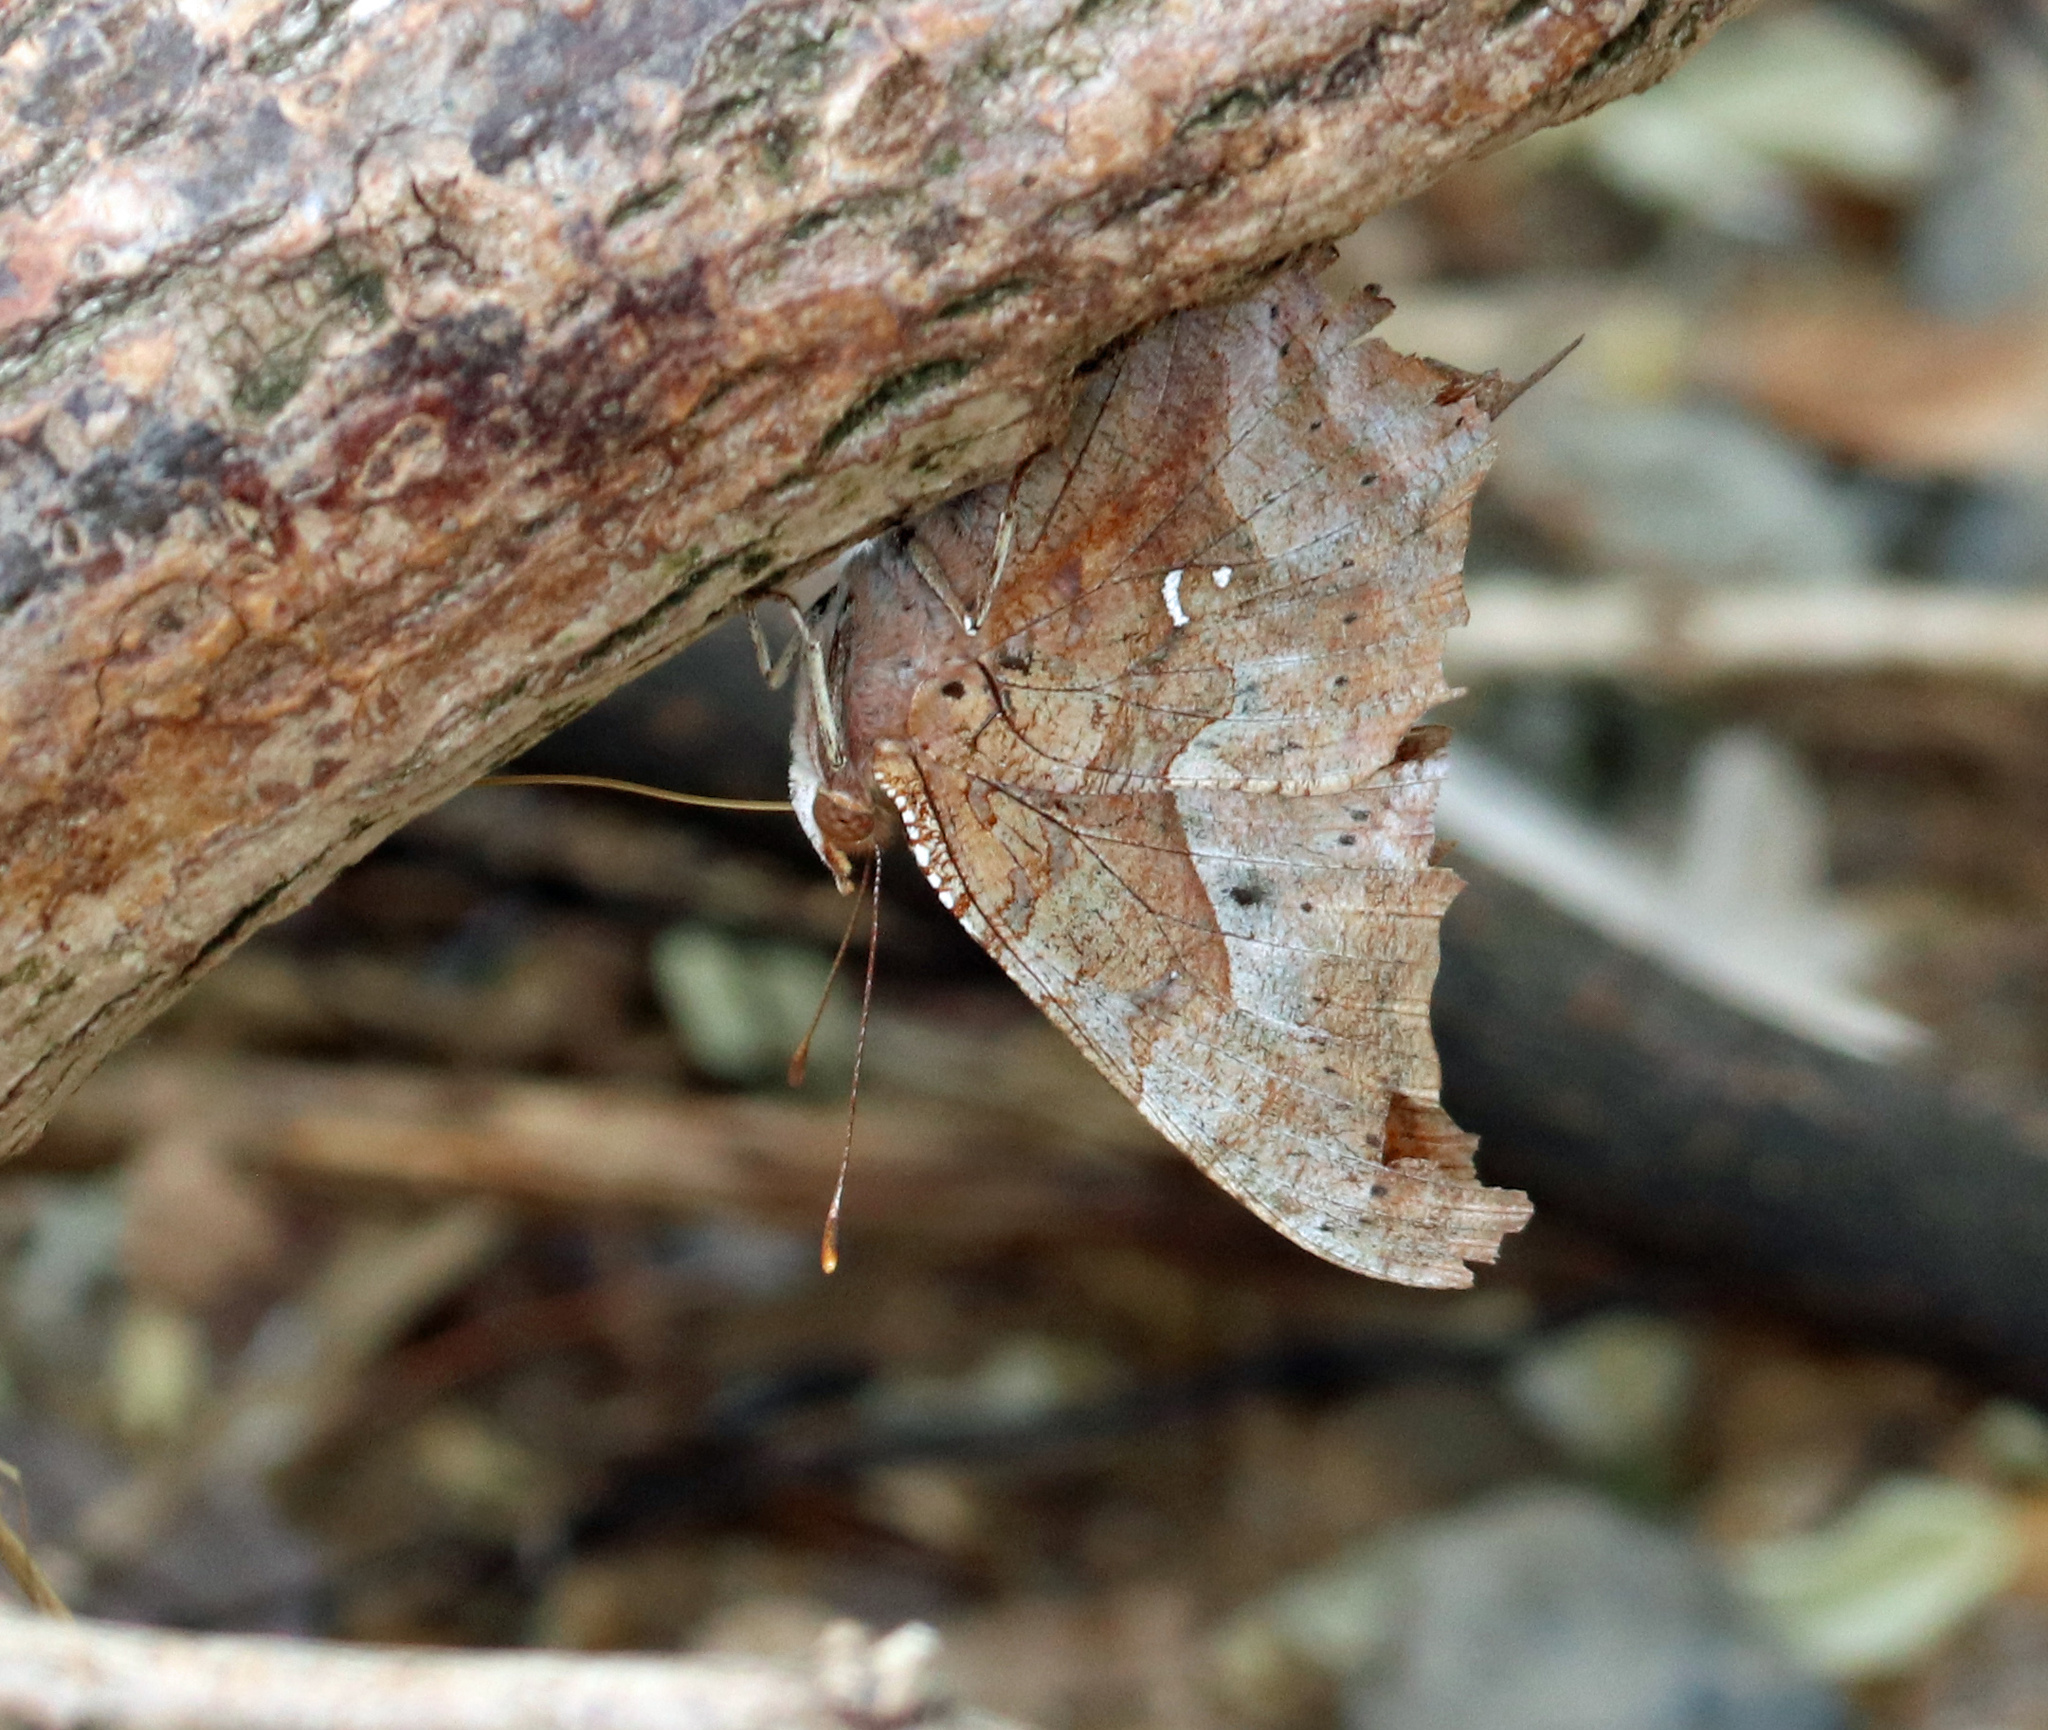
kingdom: Animalia
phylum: Arthropoda
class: Insecta
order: Lepidoptera
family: Nymphalidae
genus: Polygonia
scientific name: Polygonia interrogationis
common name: Question mark
